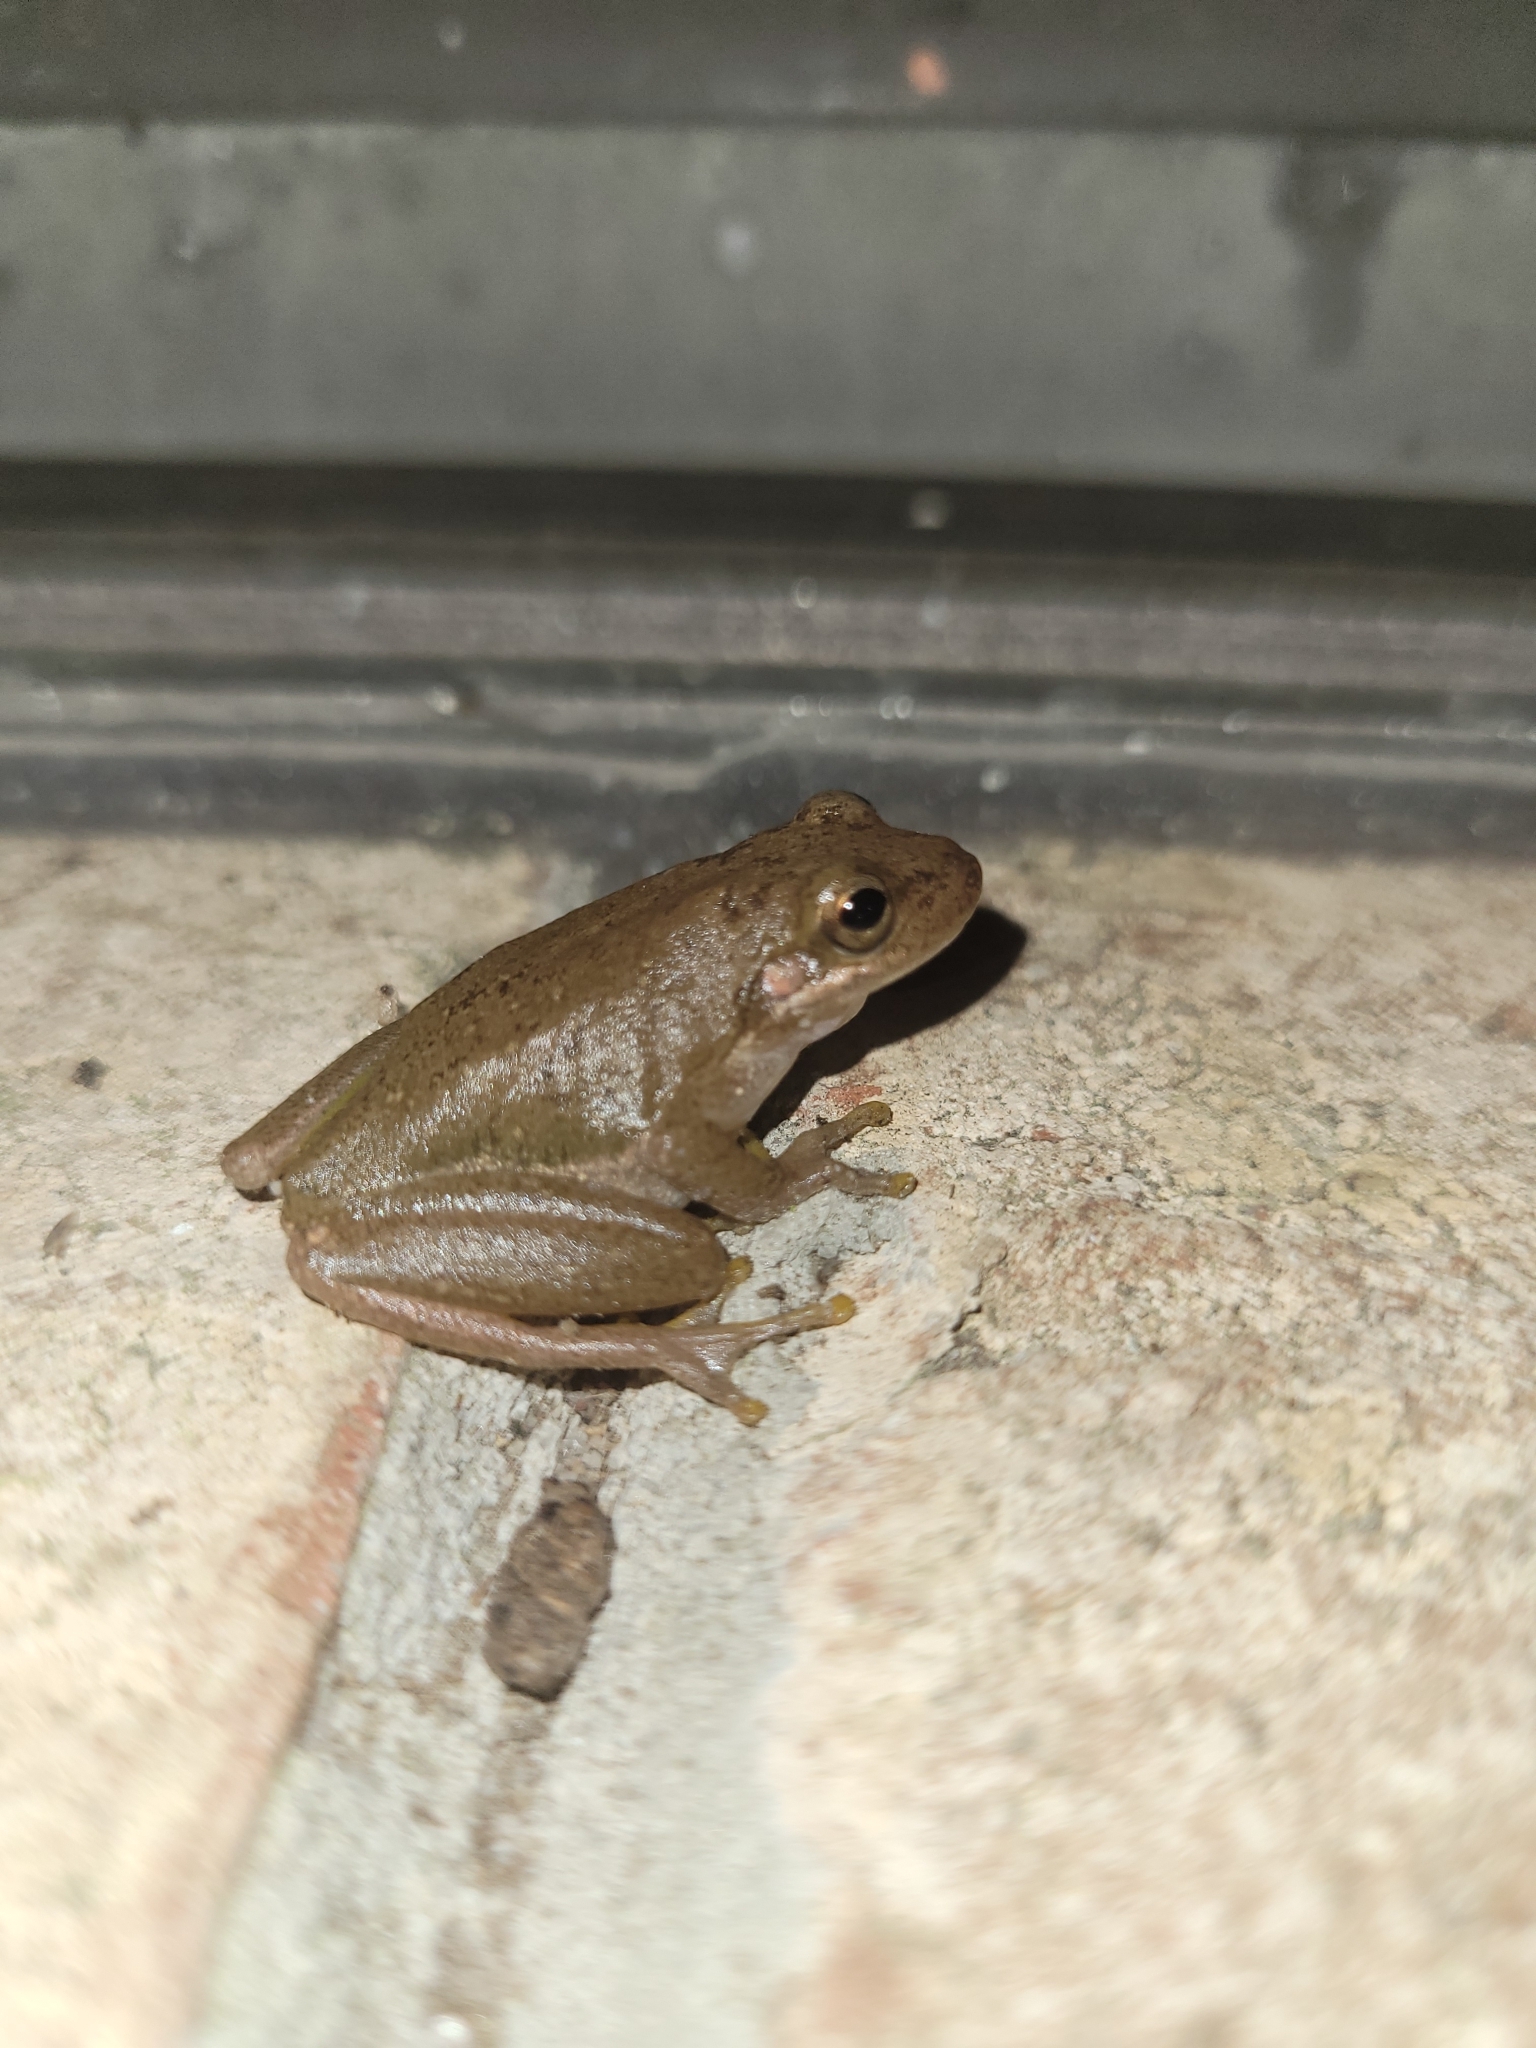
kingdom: Animalia
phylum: Chordata
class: Amphibia
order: Anura
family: Hylidae
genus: Dryophytes
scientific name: Dryophytes squirellus
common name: Squirrel treefrog
